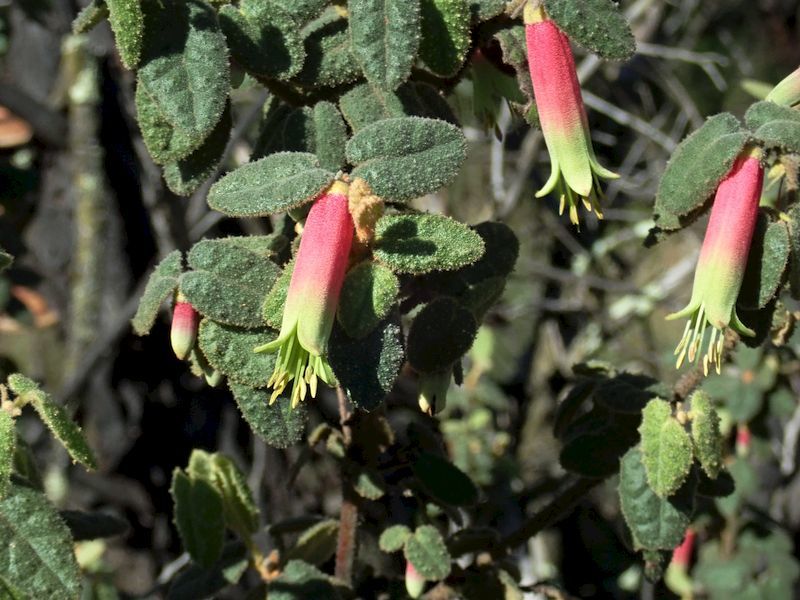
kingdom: Plantae
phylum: Tracheophyta
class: Magnoliopsida
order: Sapindales
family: Rutaceae
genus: Correa
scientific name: Correa reflexa
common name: Common correa
